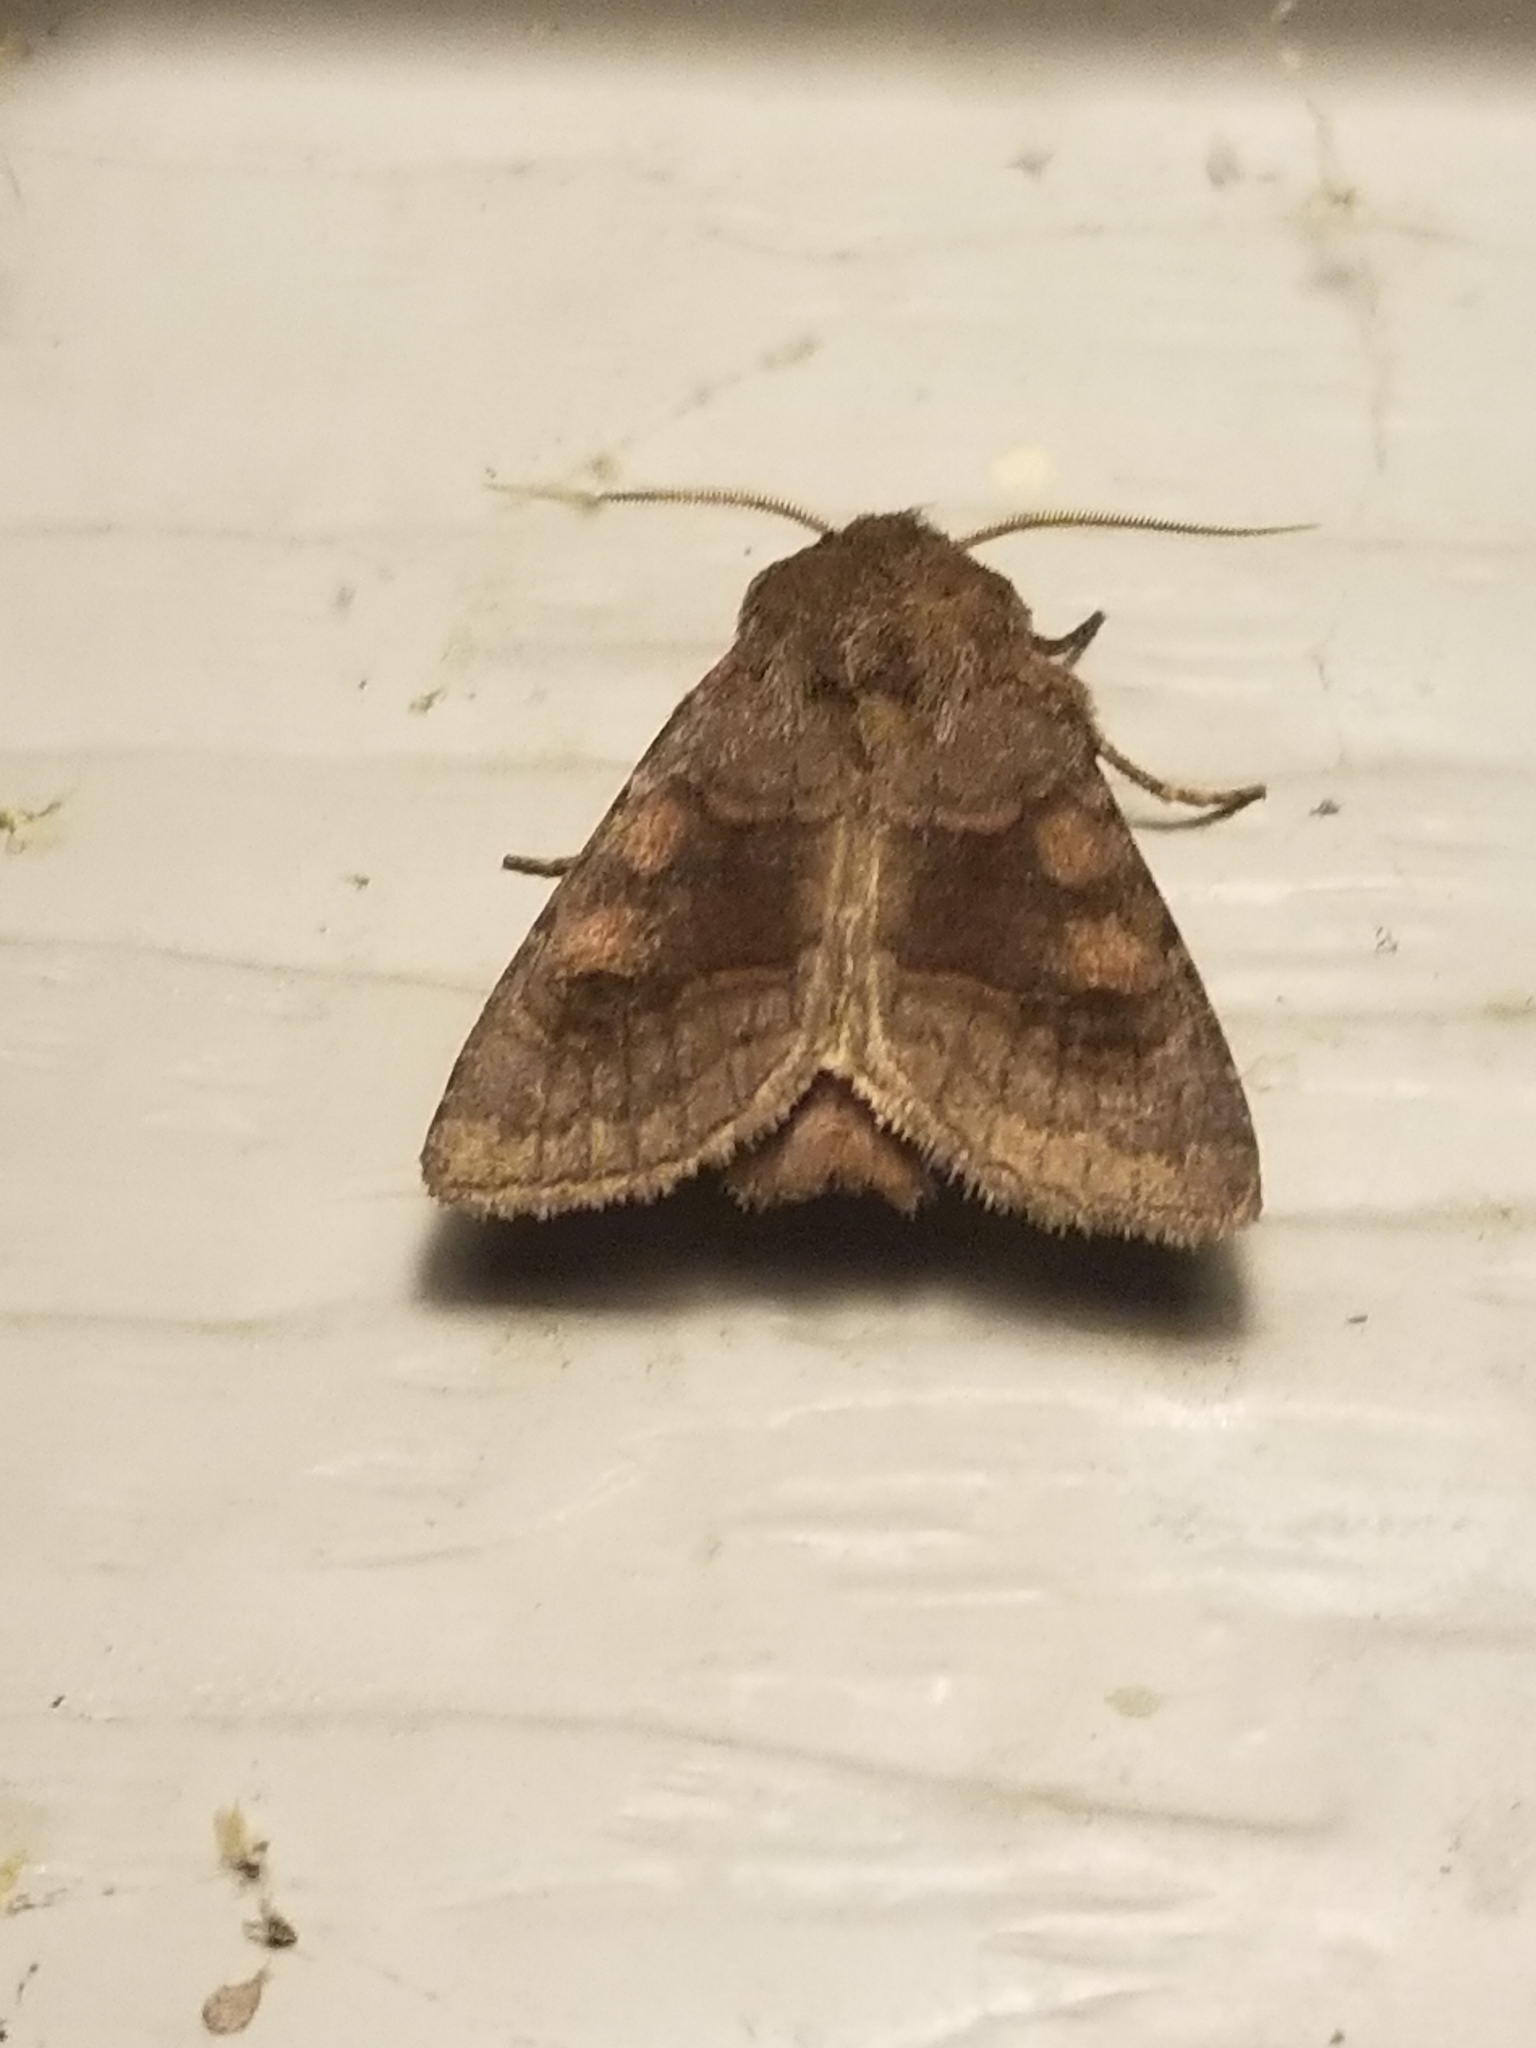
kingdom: Animalia
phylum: Arthropoda
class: Insecta
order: Lepidoptera
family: Noctuidae
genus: Nephelodes
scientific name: Nephelodes minians
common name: Bronzed cutworm
